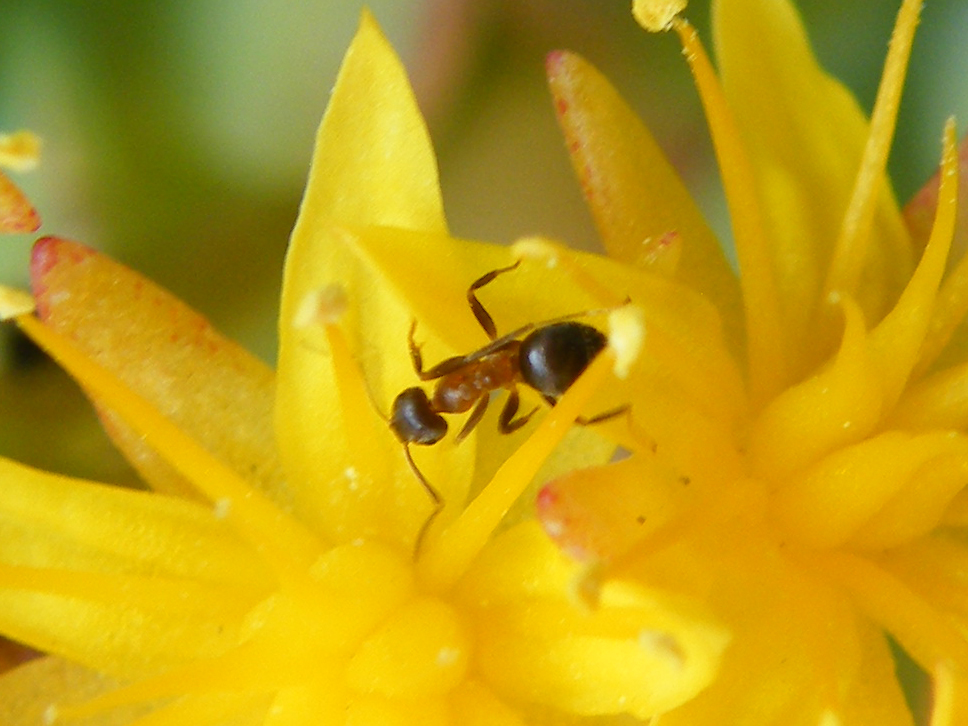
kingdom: Animalia
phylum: Arthropoda
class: Insecta
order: Hymenoptera
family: Formicidae
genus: Lasius
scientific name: Lasius emarginatus
